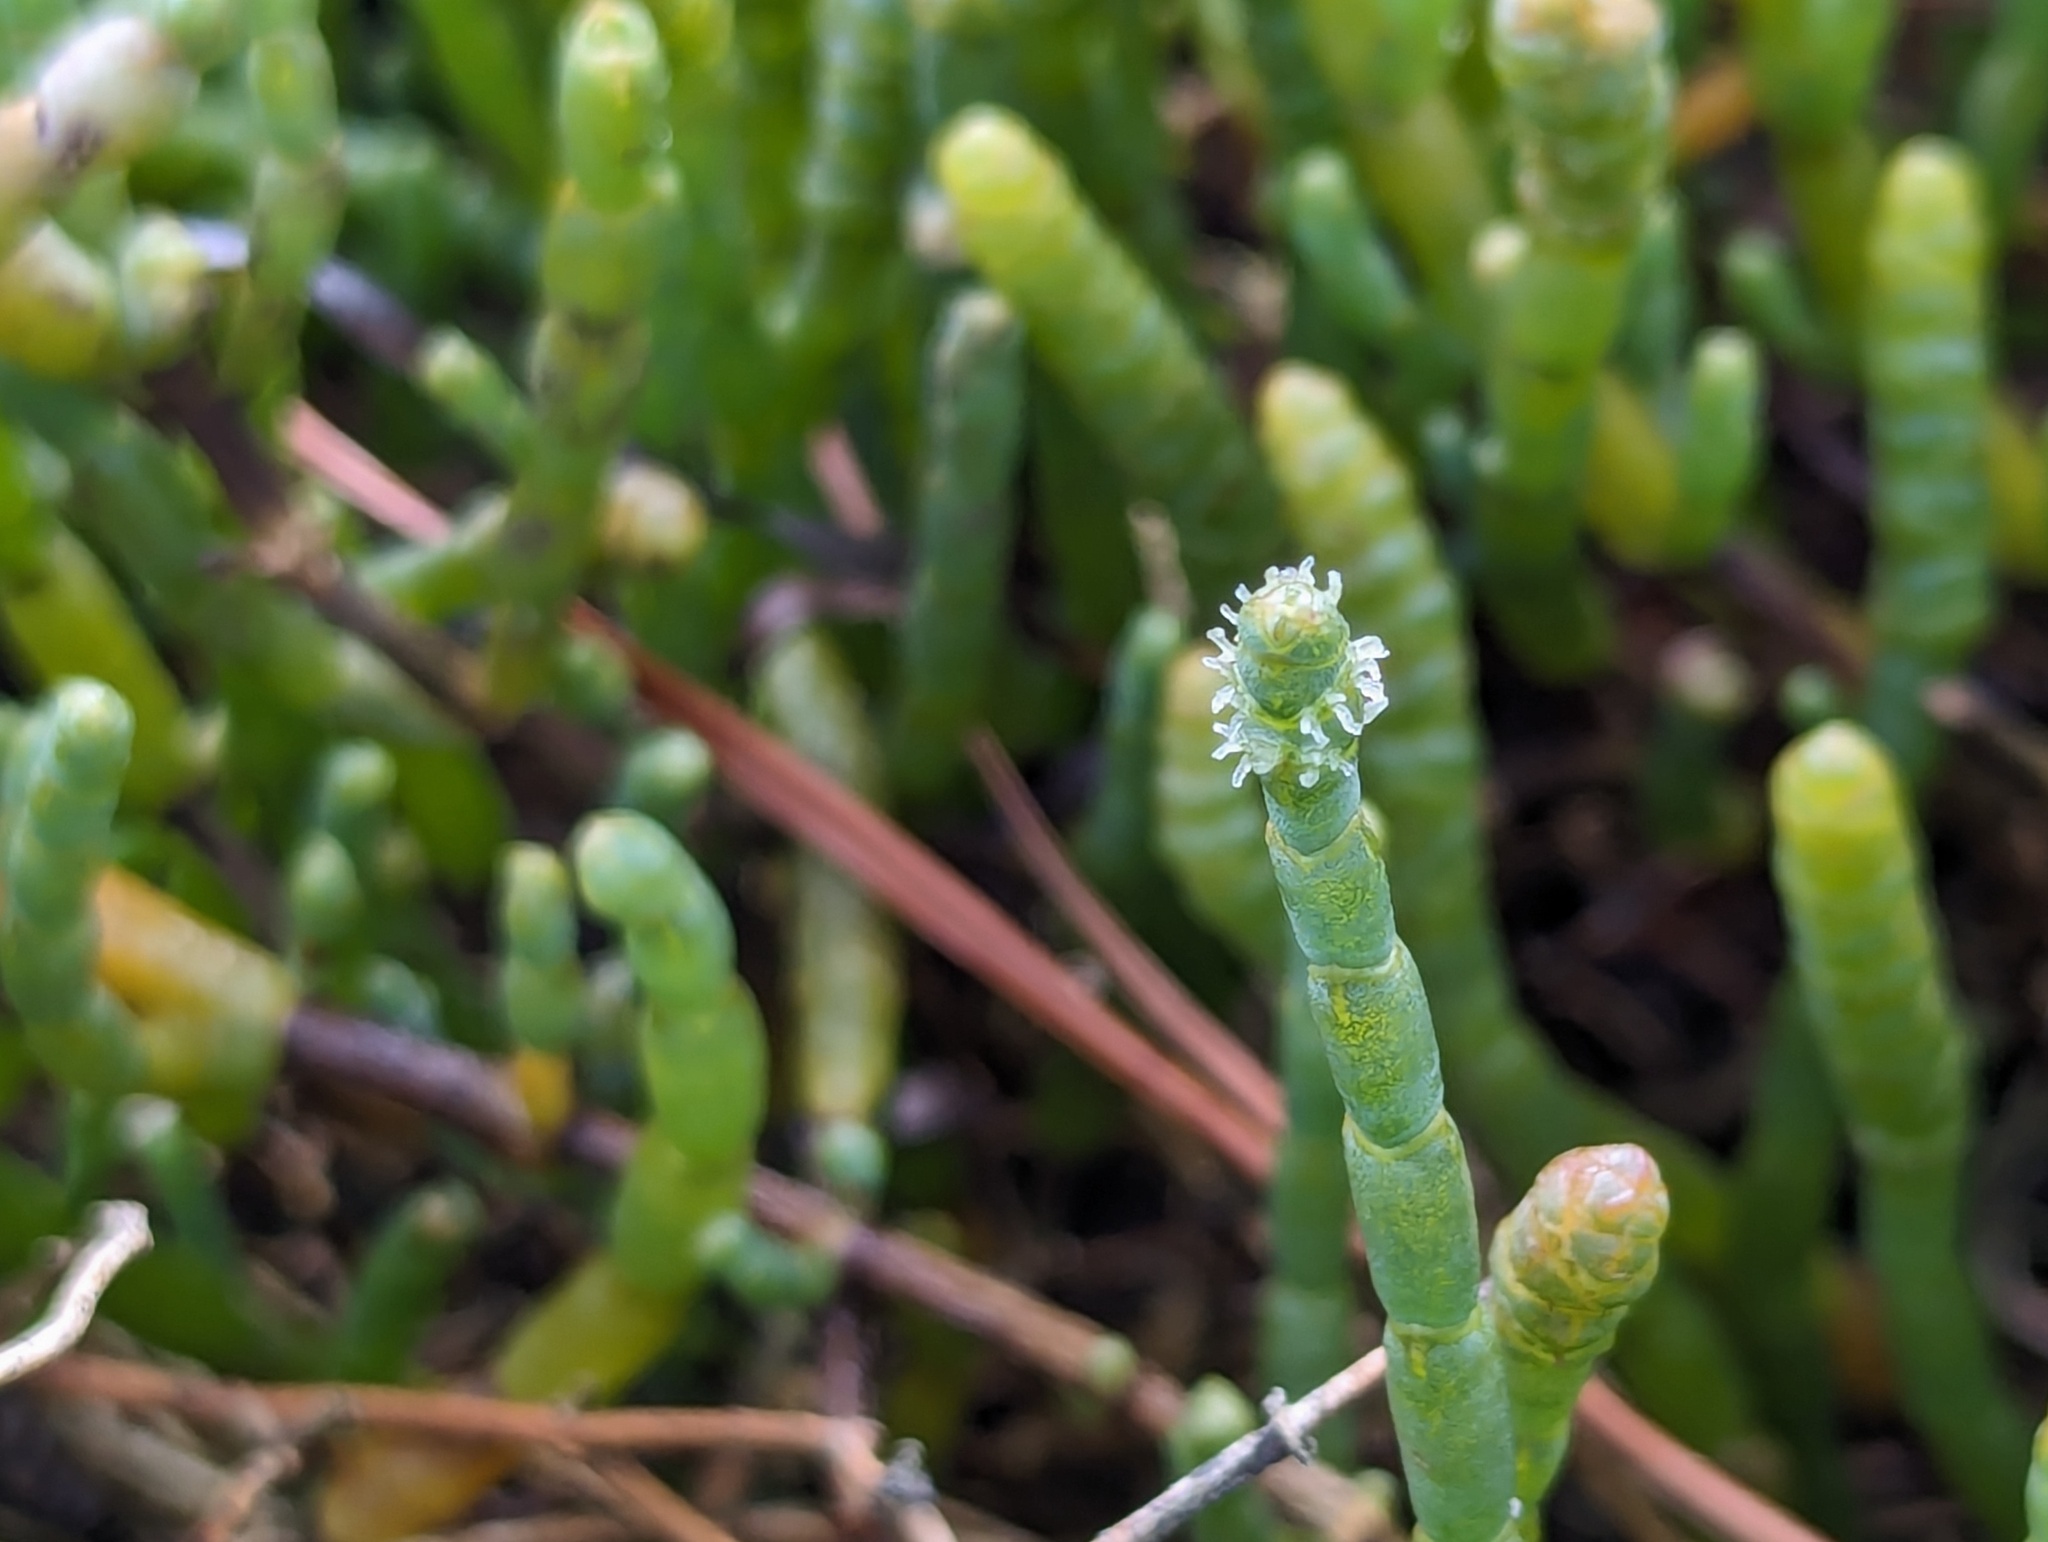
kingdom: Plantae
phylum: Tracheophyta
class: Magnoliopsida
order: Caryophyllales
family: Amaranthaceae
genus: Salicornia
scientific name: Salicornia quinqueflora
